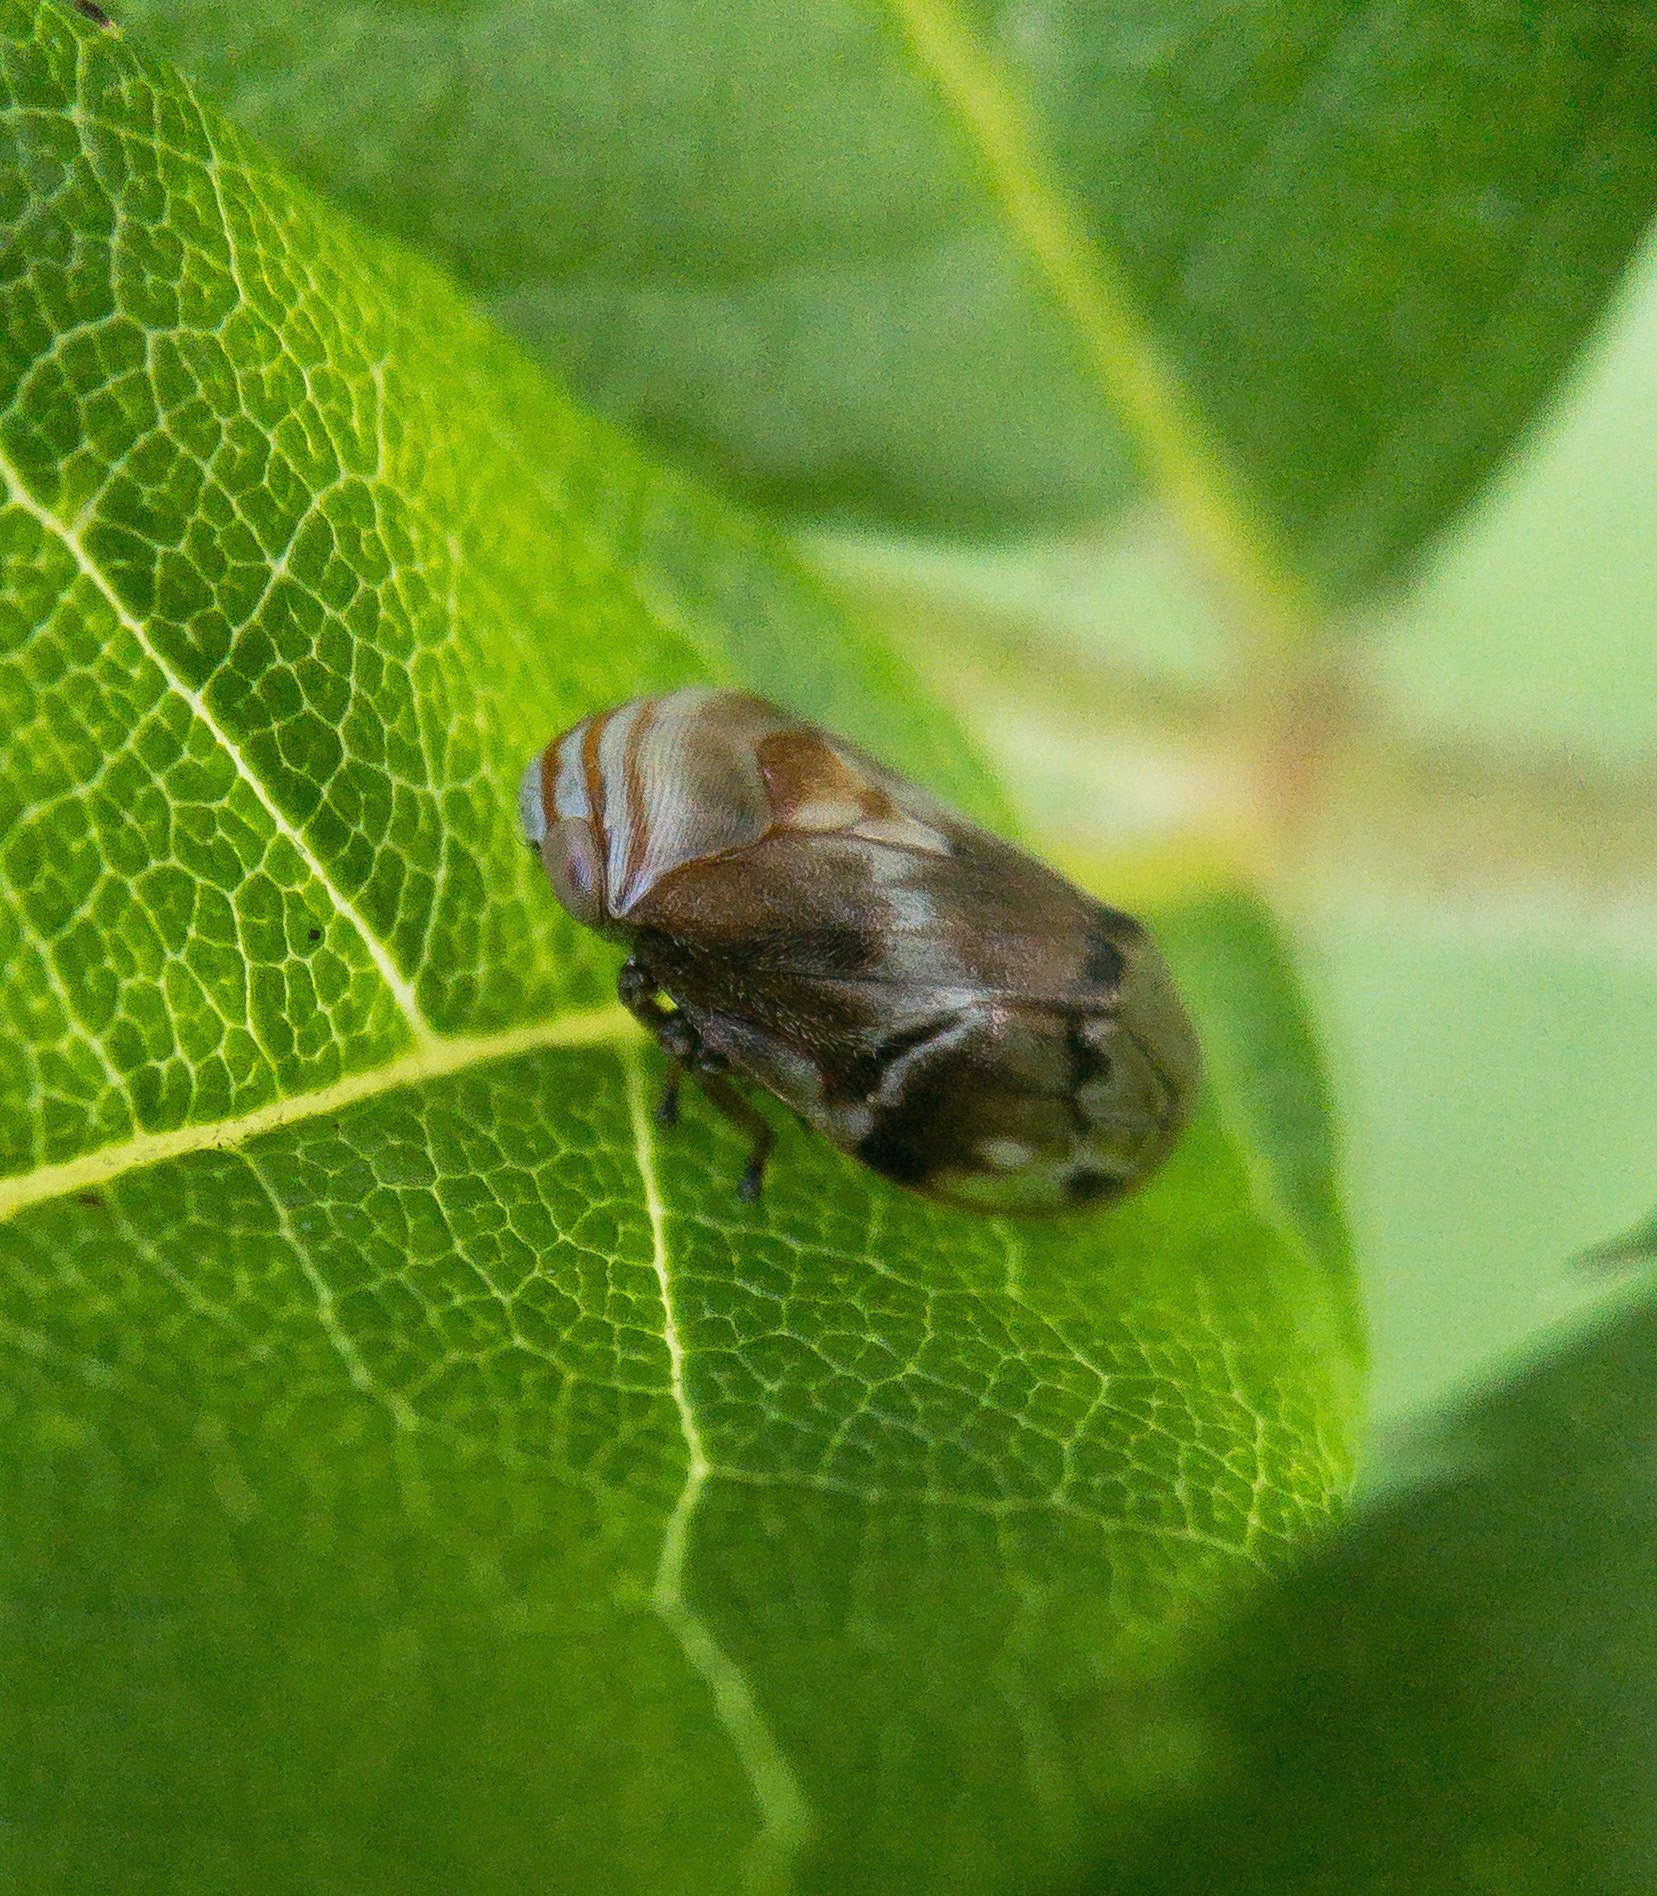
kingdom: Animalia
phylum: Arthropoda
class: Insecta
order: Hemiptera
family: Clastopteridae
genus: Clastoptera
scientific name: Clastoptera obtusa
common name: Alder spittlebug
